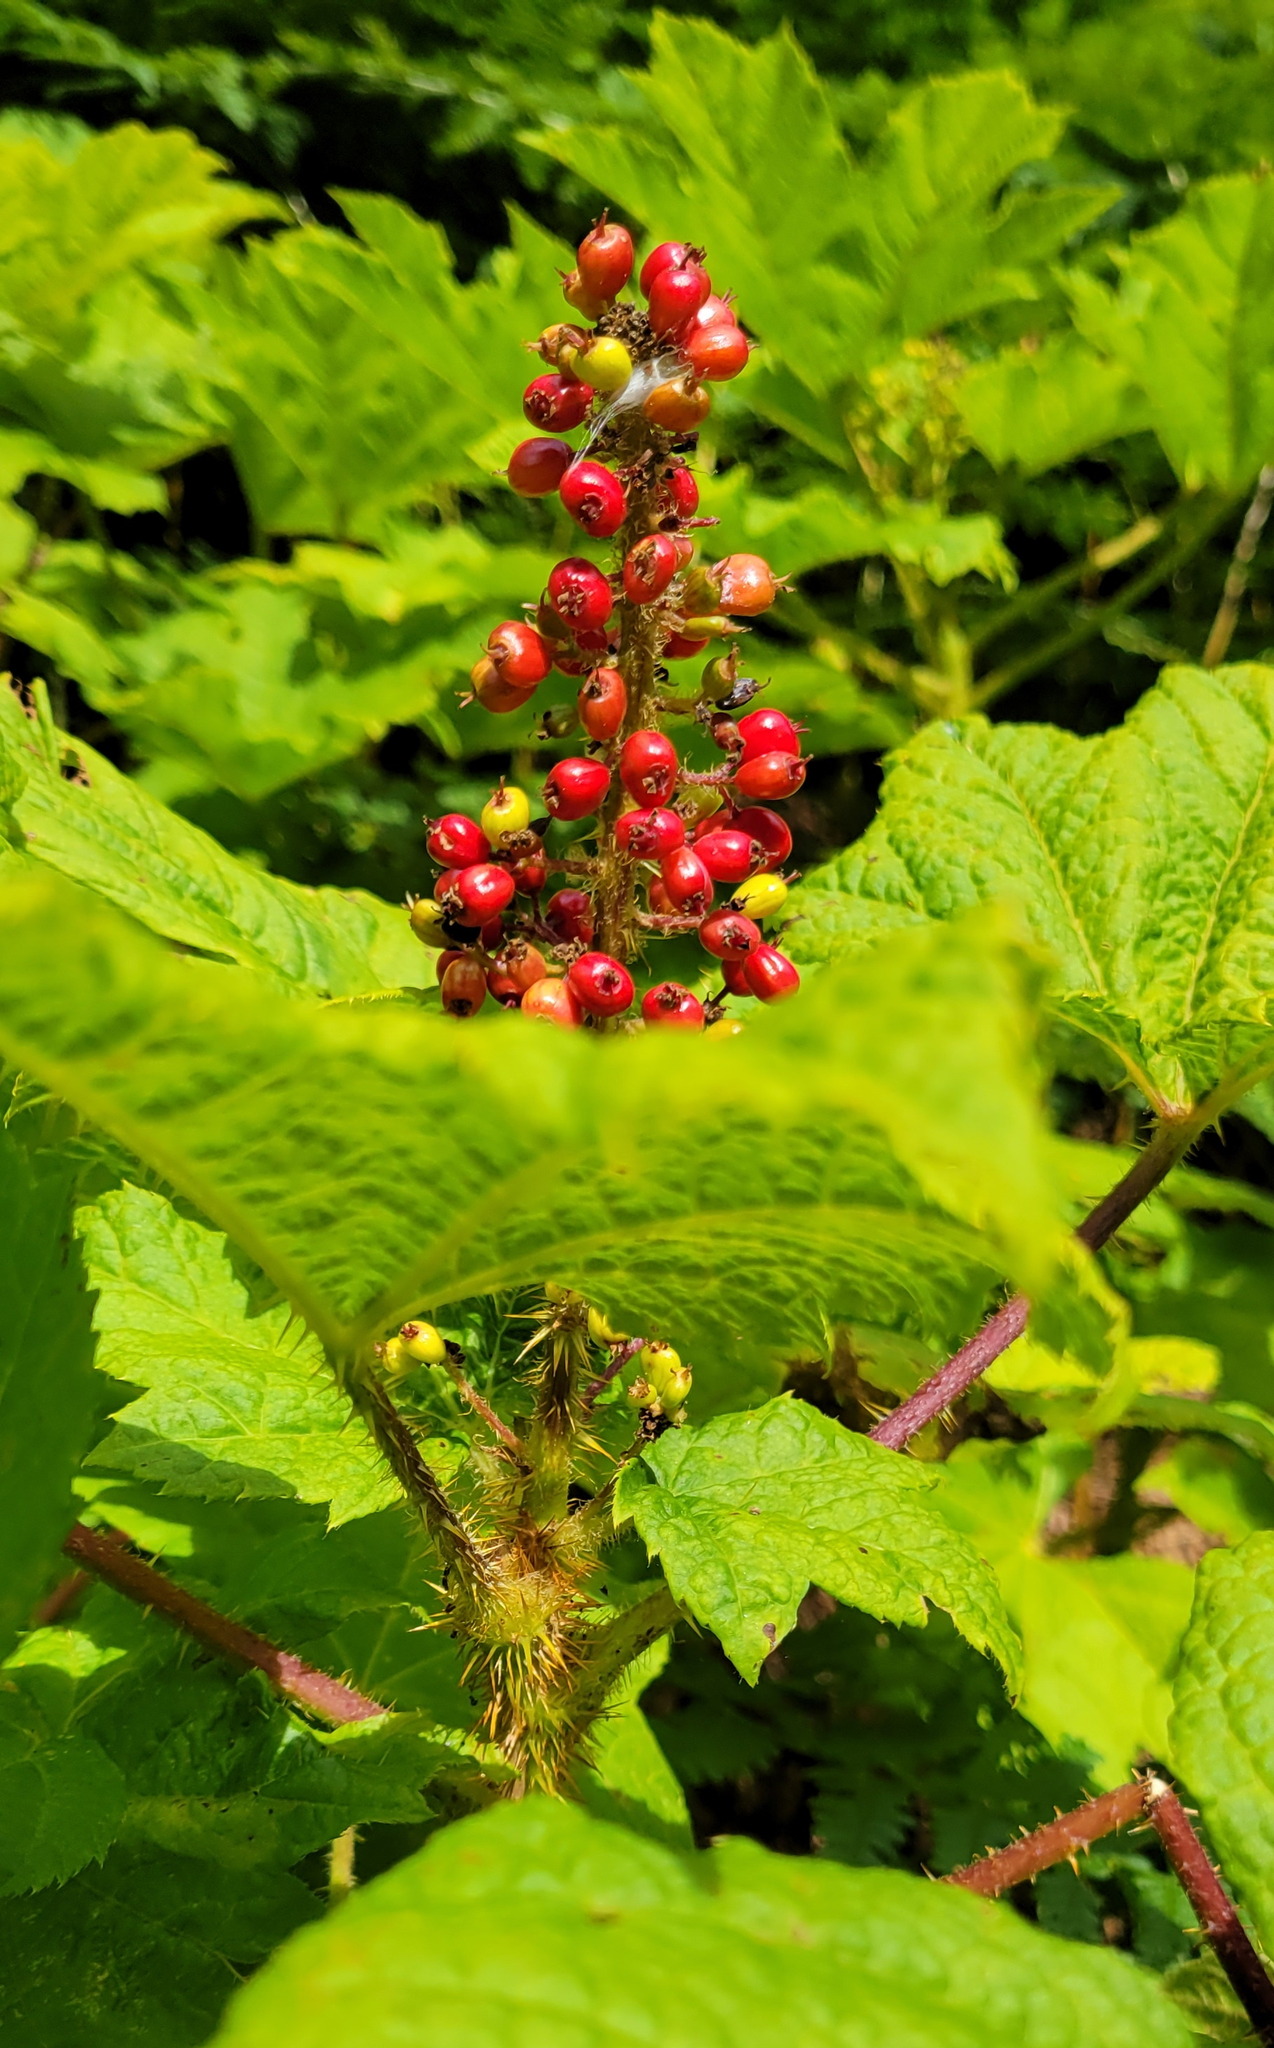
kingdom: Plantae
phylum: Tracheophyta
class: Magnoliopsida
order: Apiales
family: Araliaceae
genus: Oplopanax
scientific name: Oplopanax horridus
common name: Devil's walking-stick
